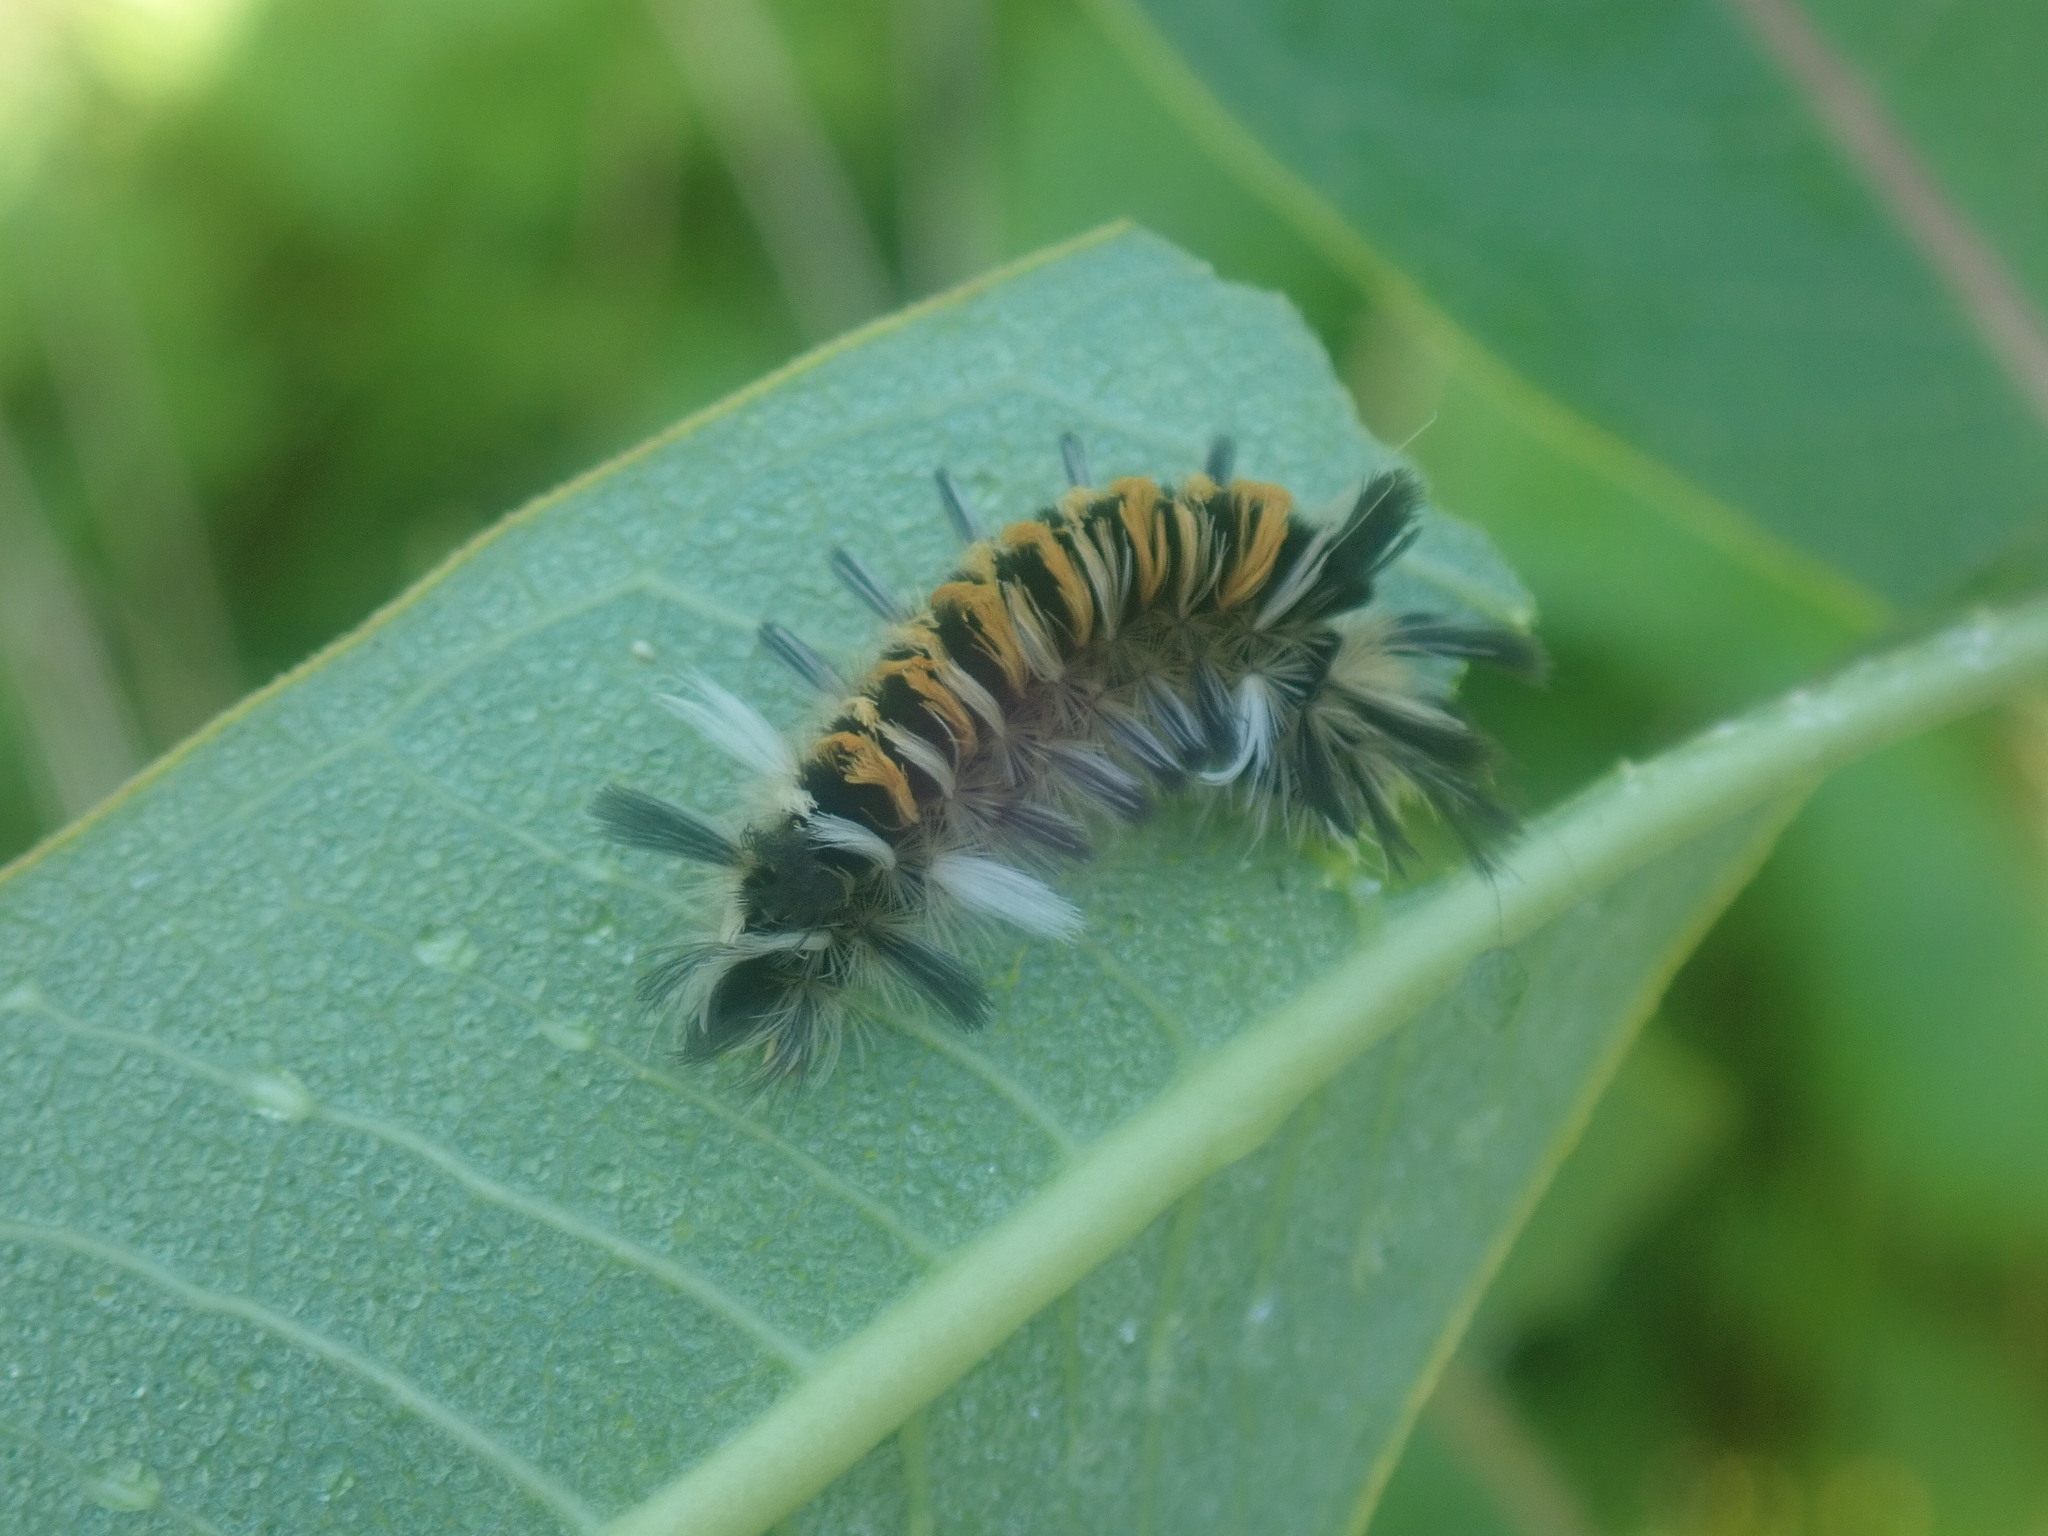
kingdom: Animalia
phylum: Arthropoda
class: Insecta
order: Lepidoptera
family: Erebidae
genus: Euchaetes
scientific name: Euchaetes egle
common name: Milkweed tussock moth
